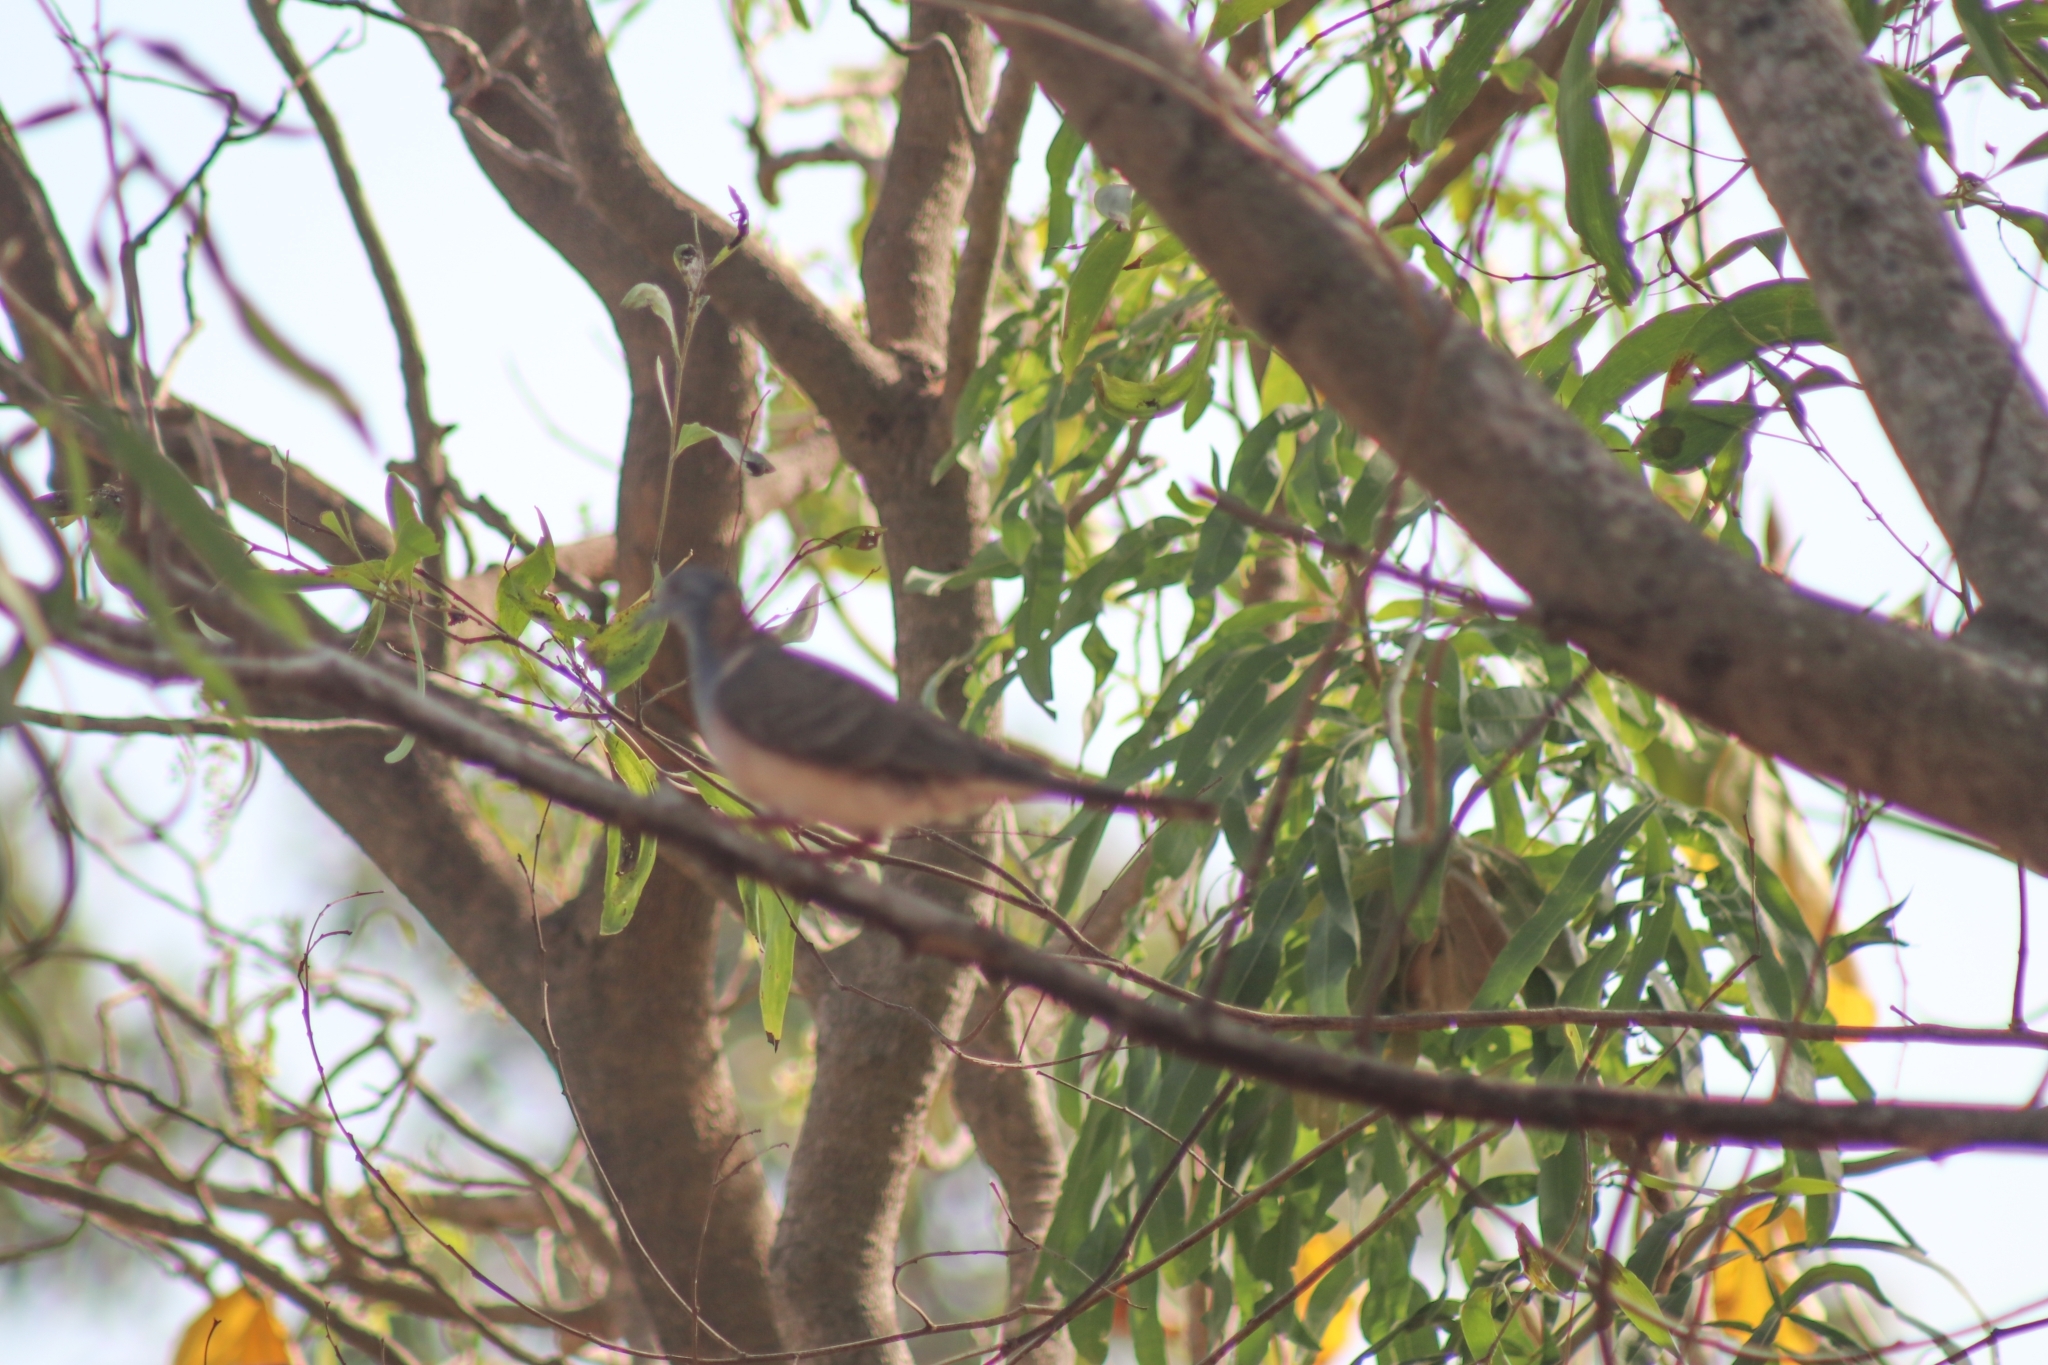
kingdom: Animalia
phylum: Chordata
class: Aves
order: Columbiformes
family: Columbidae
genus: Geopelia
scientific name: Geopelia humeralis
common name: Bar-shouldered dove
